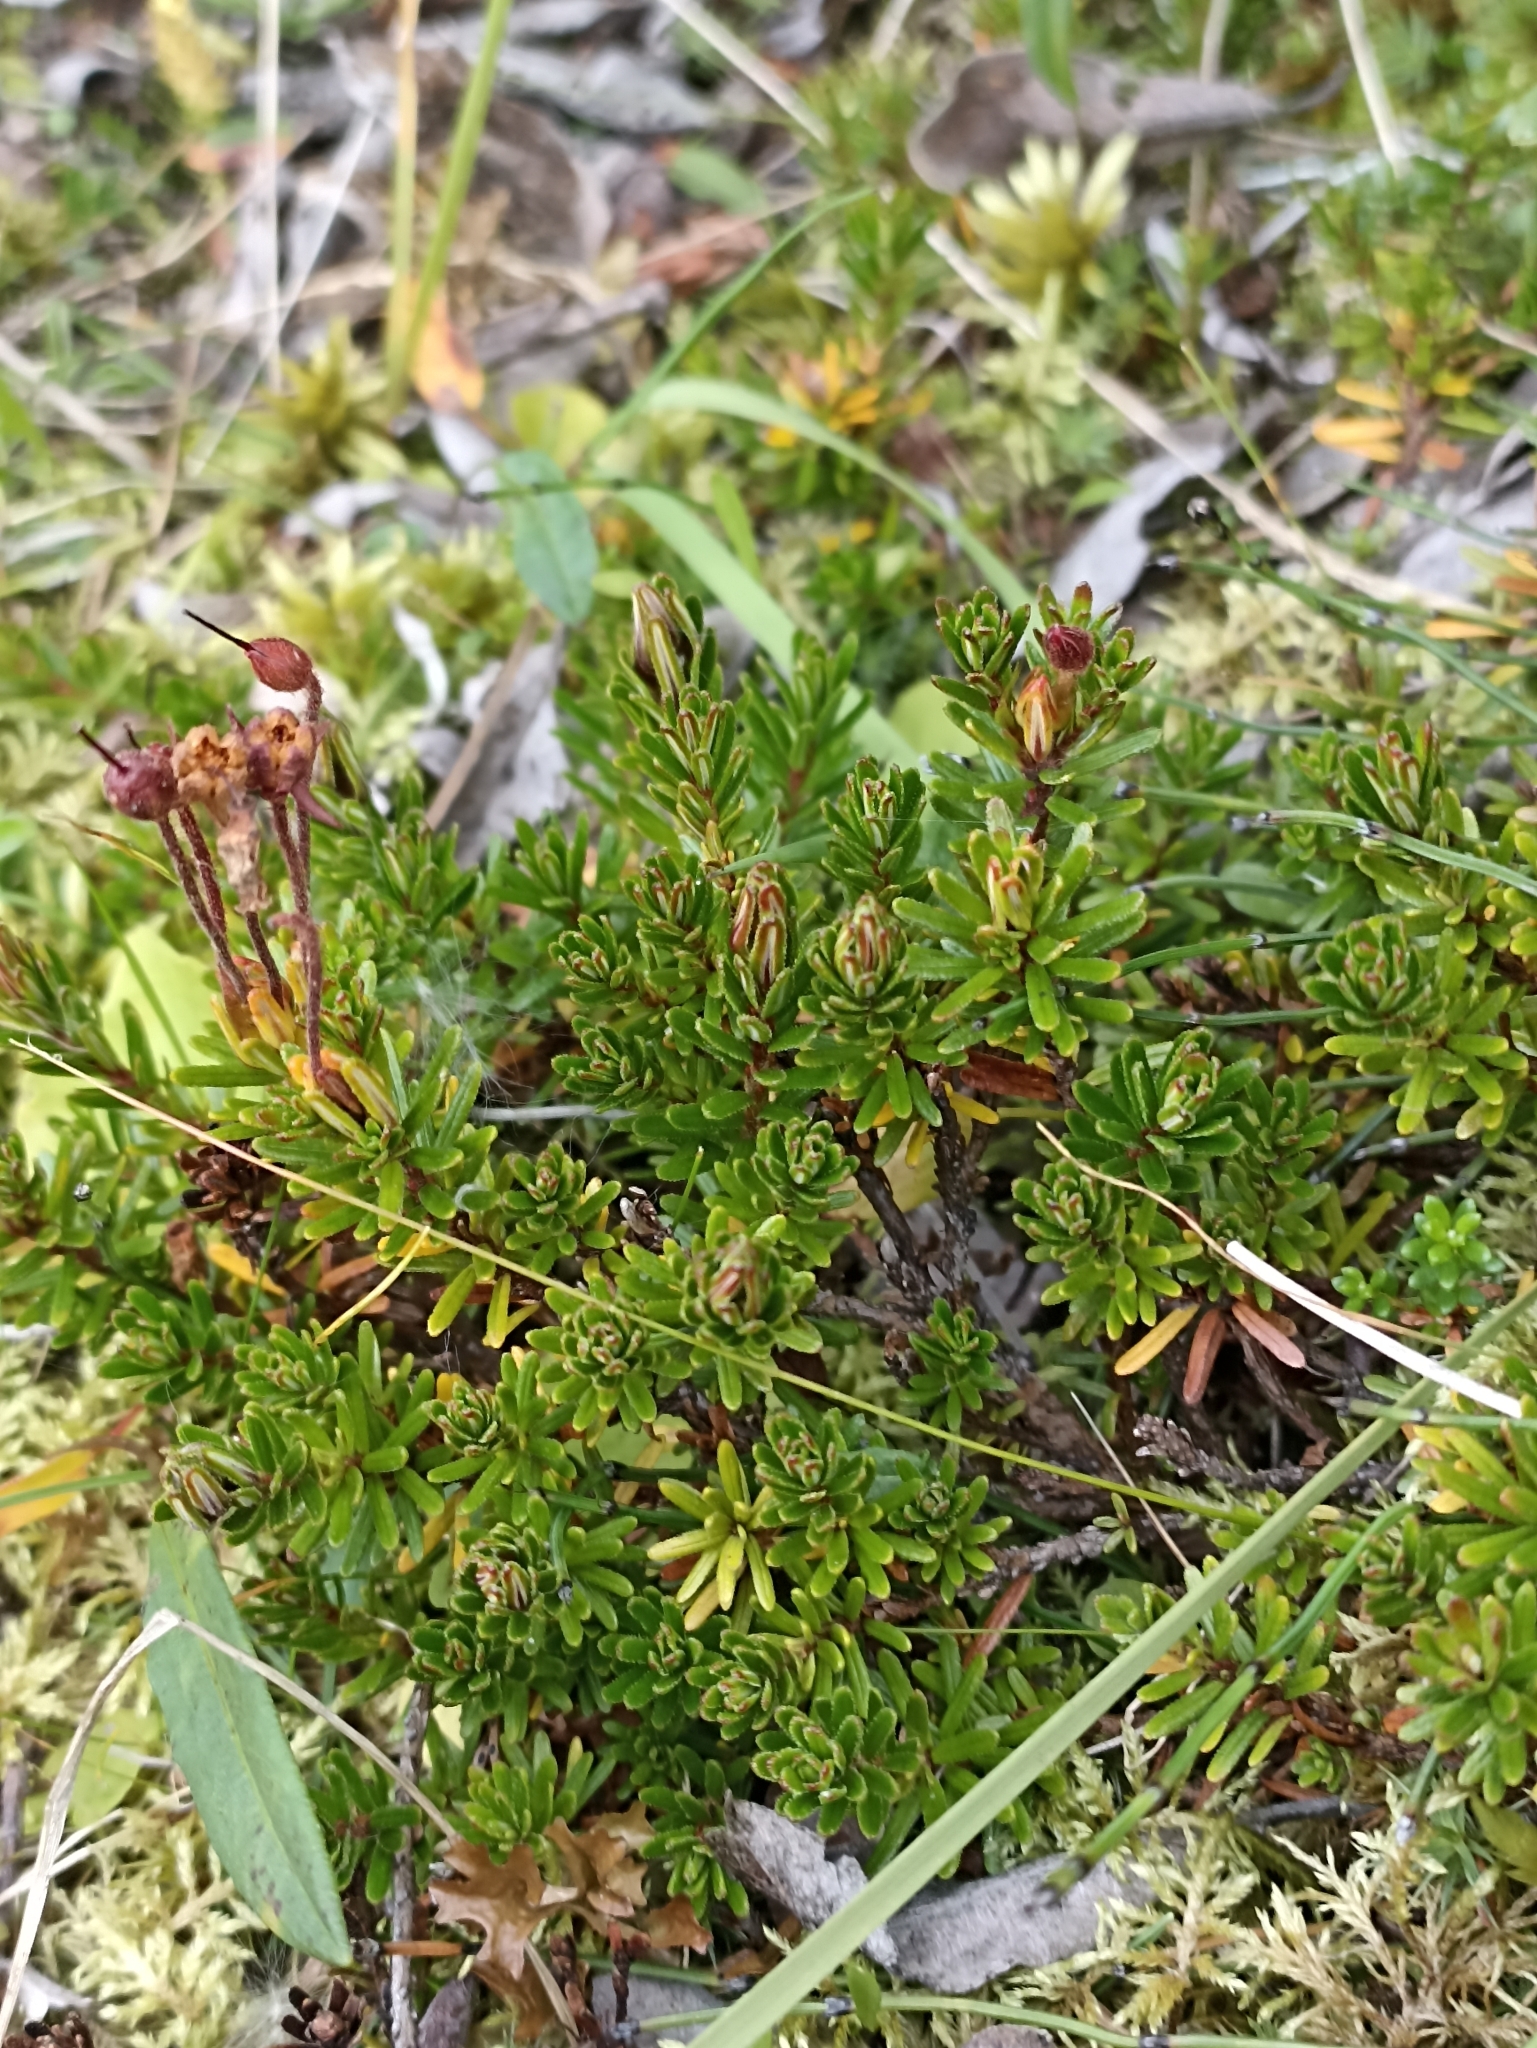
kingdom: Plantae
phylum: Tracheophyta
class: Magnoliopsida
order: Ericales
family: Ericaceae
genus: Phyllodoce
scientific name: Phyllodoce caerulea
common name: Blue heath
